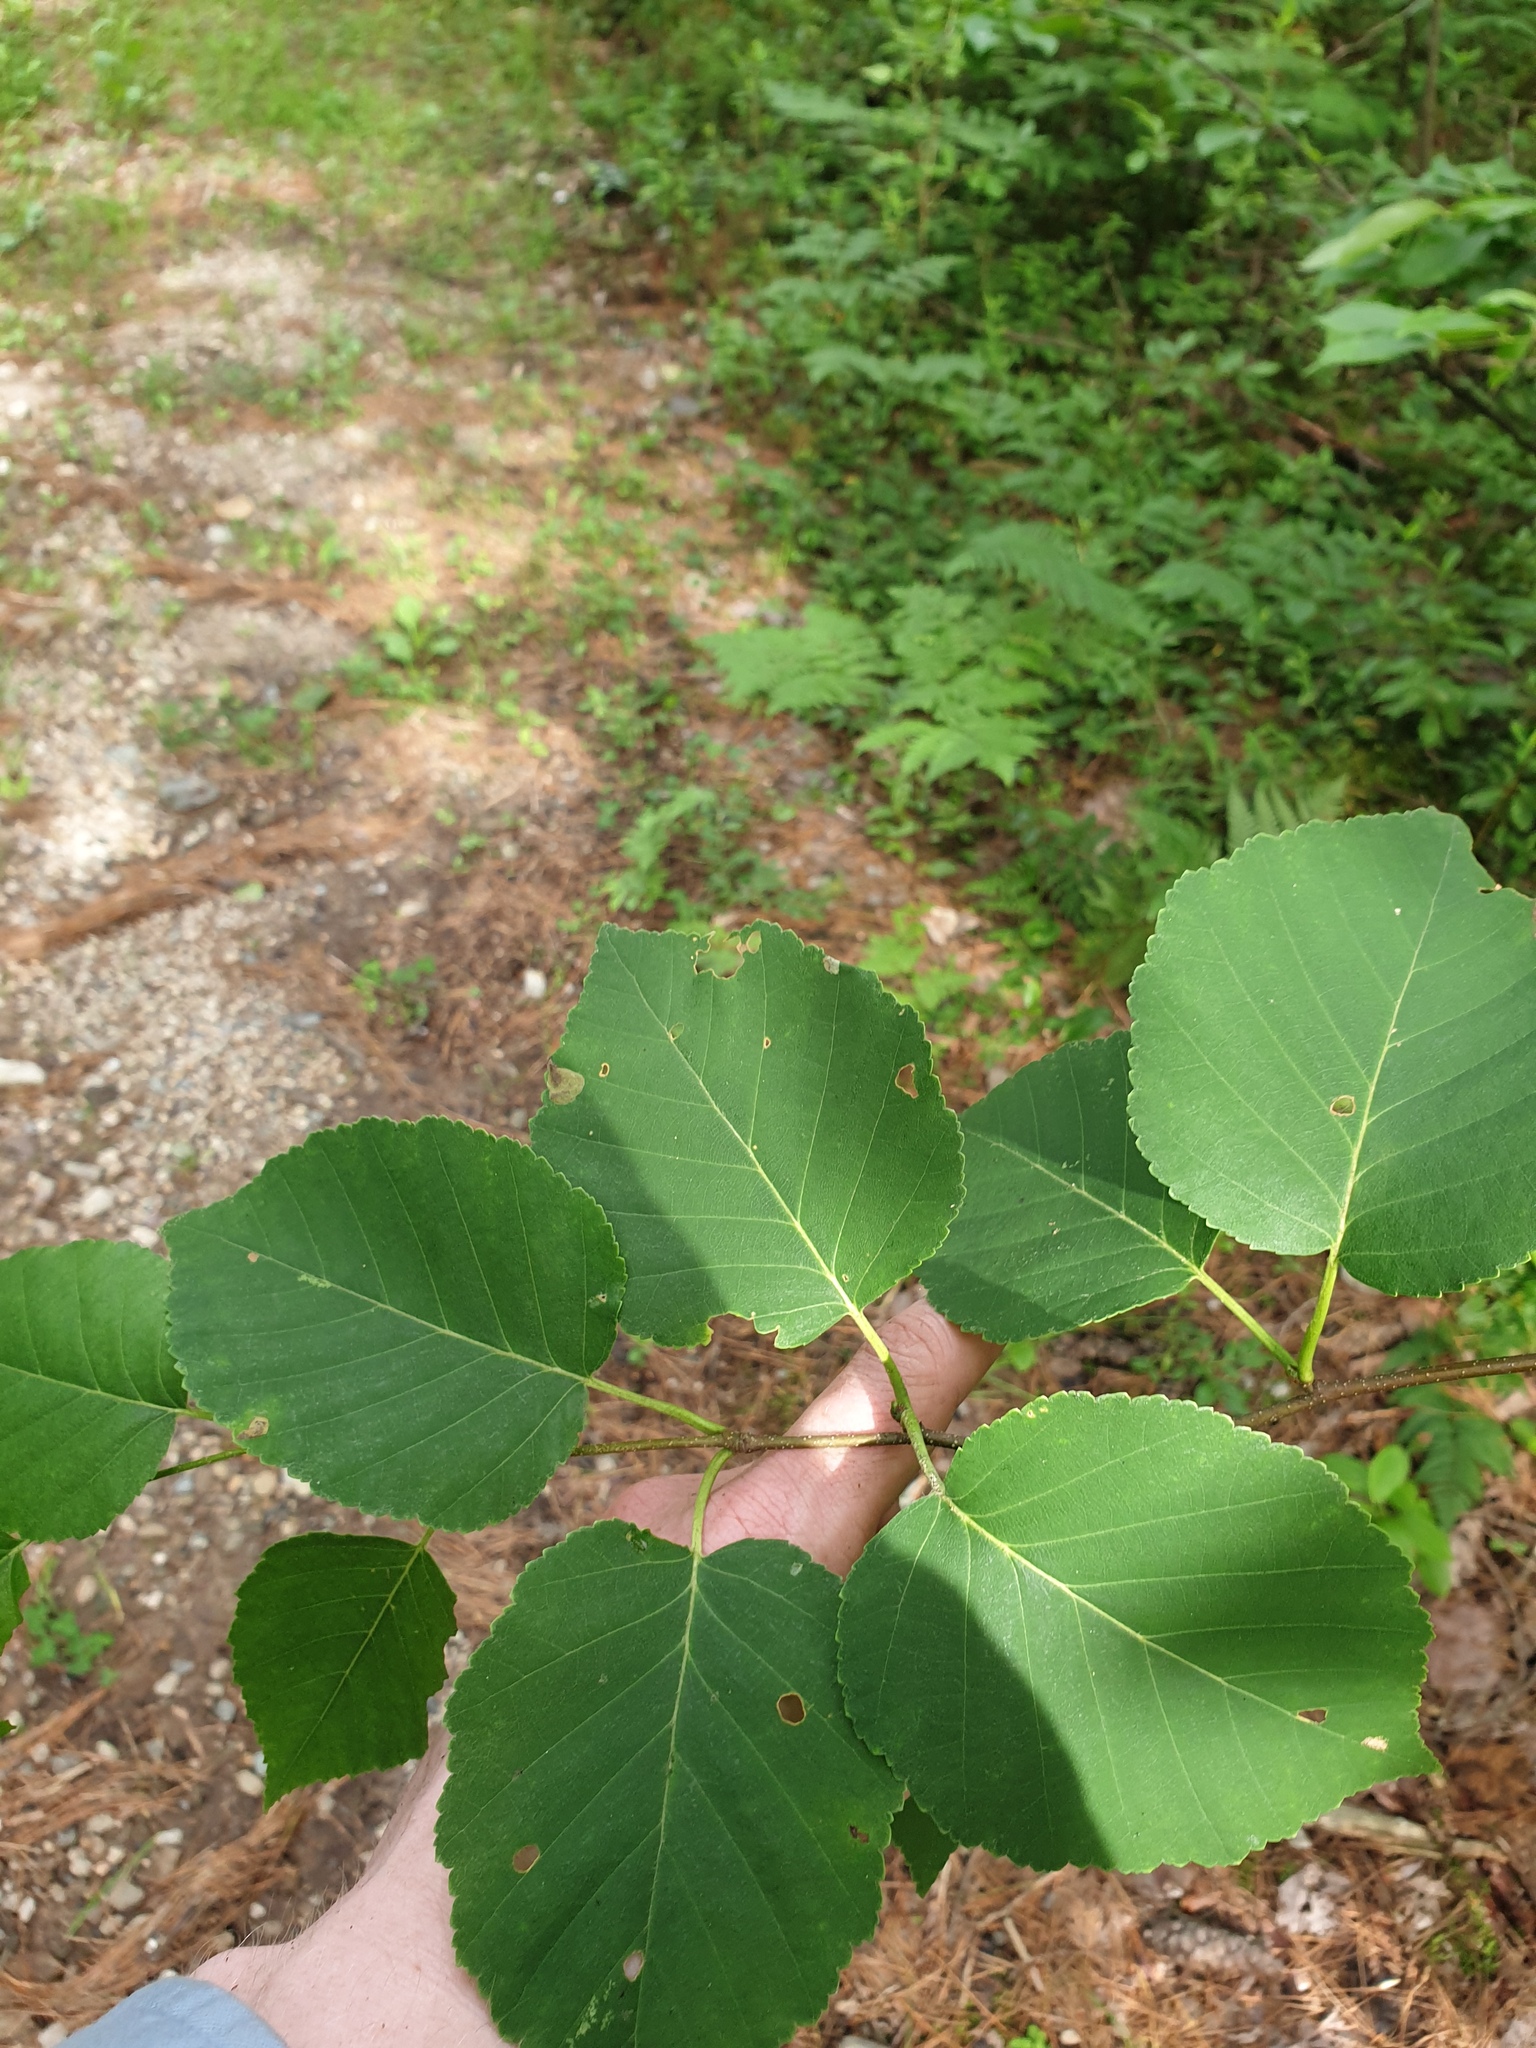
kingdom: Plantae
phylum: Tracheophyta
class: Magnoliopsida
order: Fagales
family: Betulaceae
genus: Betula
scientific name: Betula cordifolia
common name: Mountain white birch
